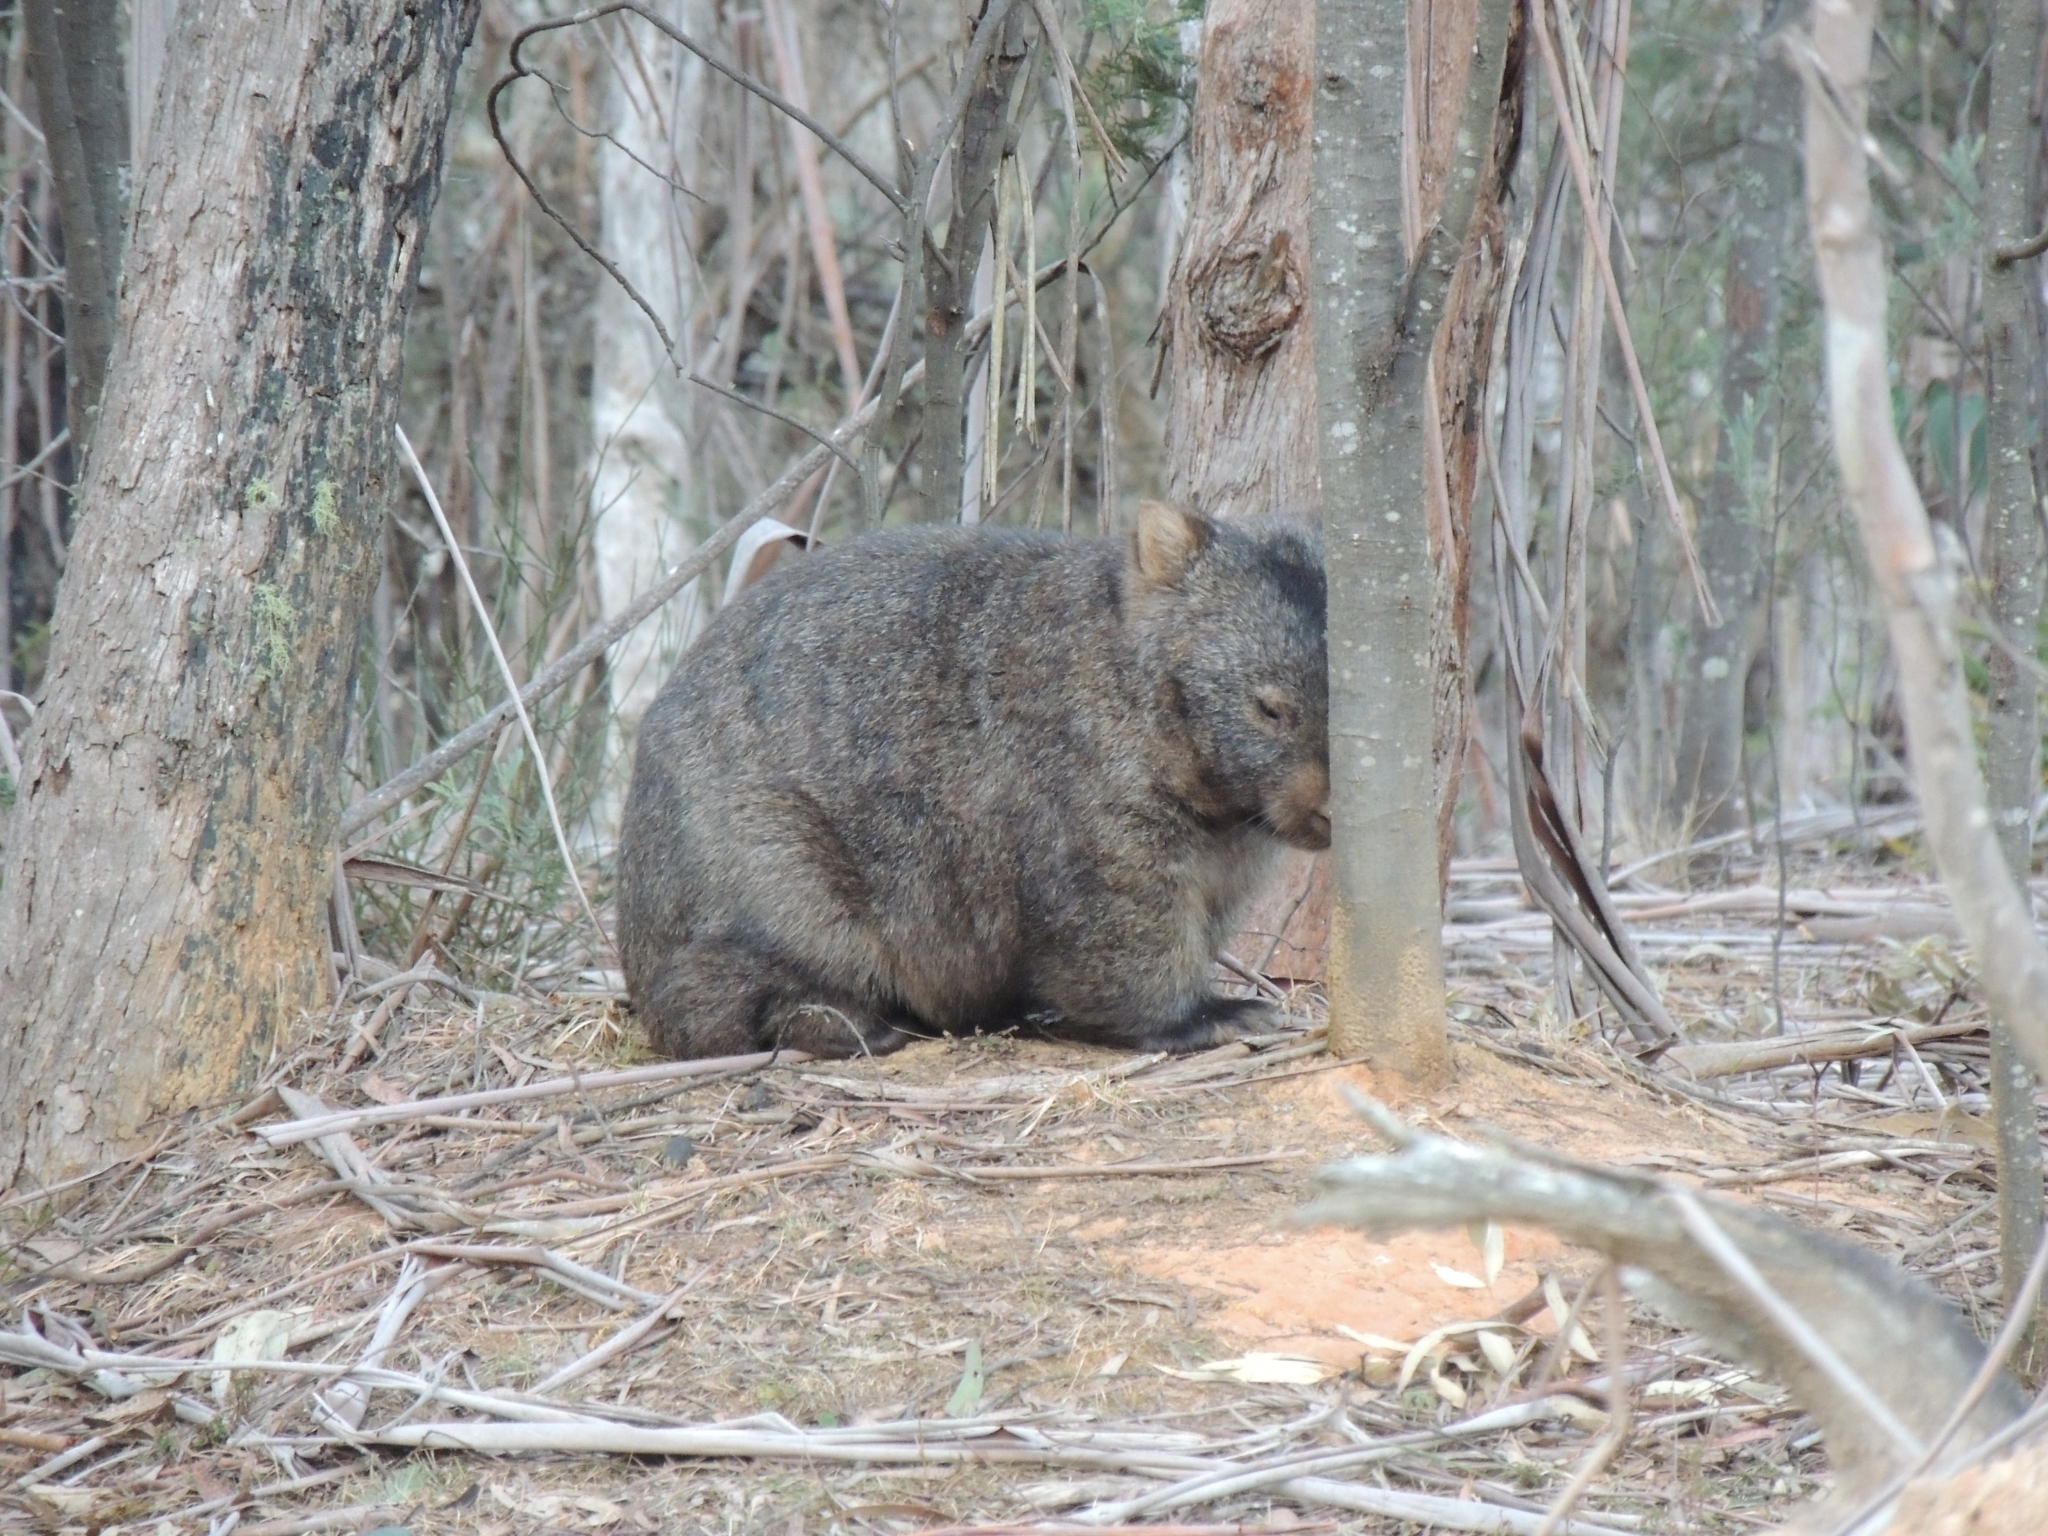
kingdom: Animalia
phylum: Chordata
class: Mammalia
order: Diprotodontia
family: Vombatidae
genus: Vombatus
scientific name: Vombatus ursinus
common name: Common wombat
